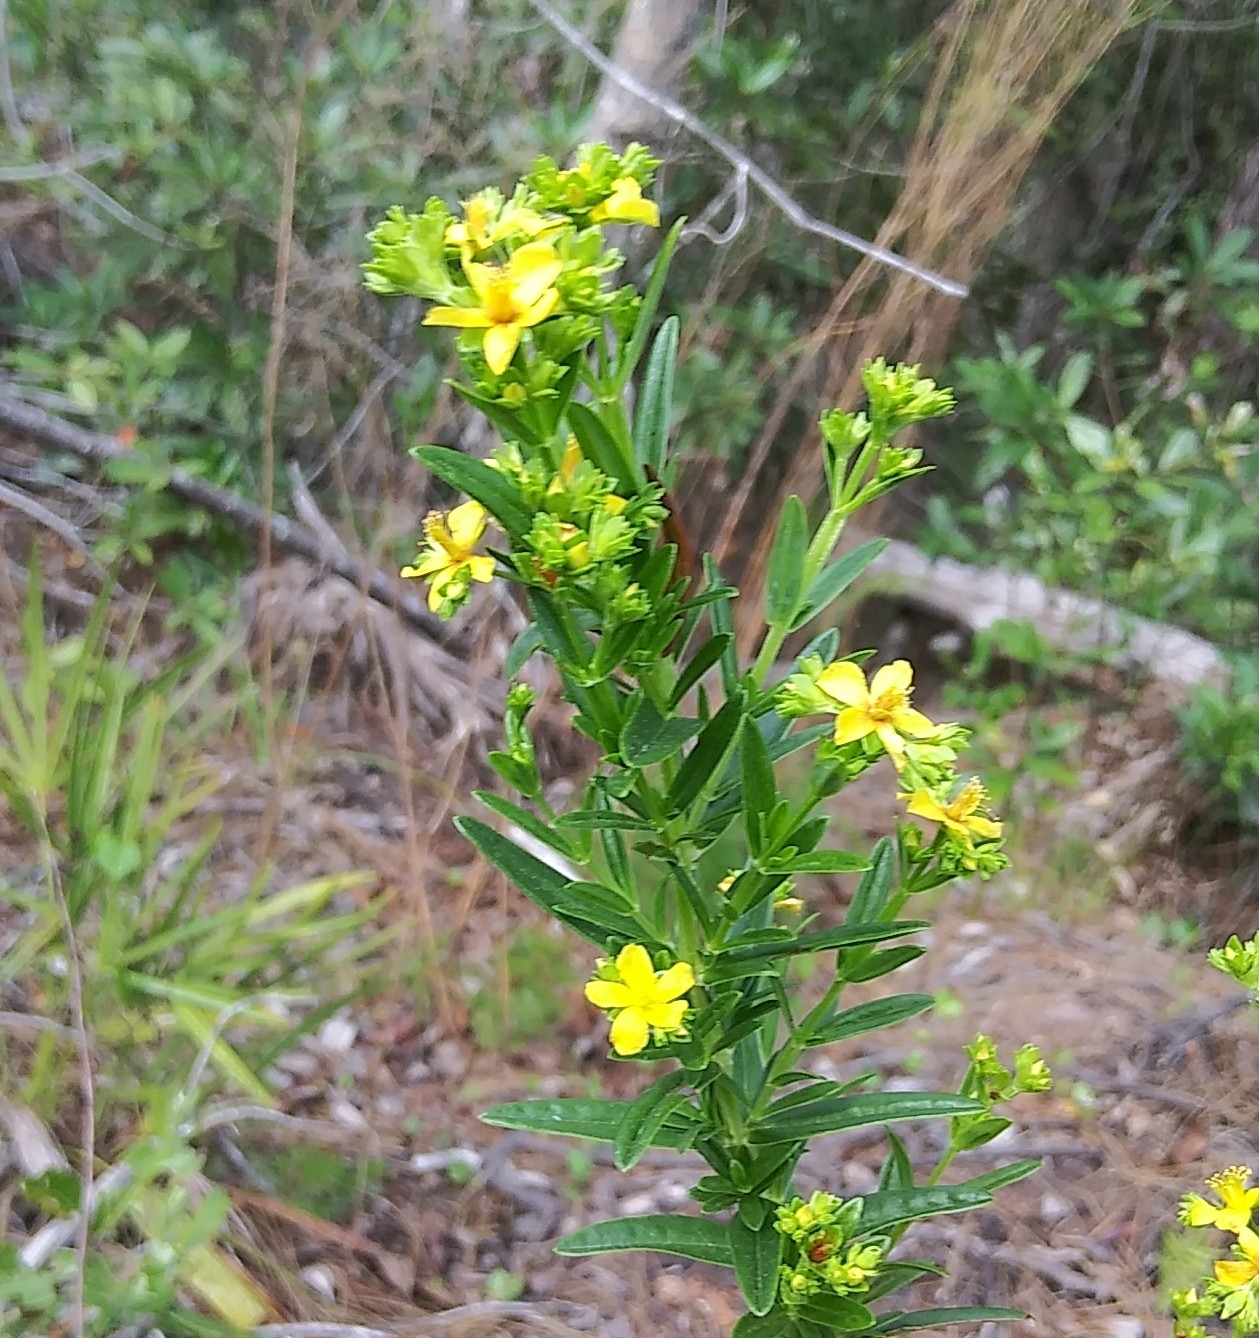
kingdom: Plantae
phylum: Tracheophyta
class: Magnoliopsida
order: Malpighiales
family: Hypericaceae
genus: Hypericum
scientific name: Hypericum cistifolium
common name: Round-pod st. john's-wort
